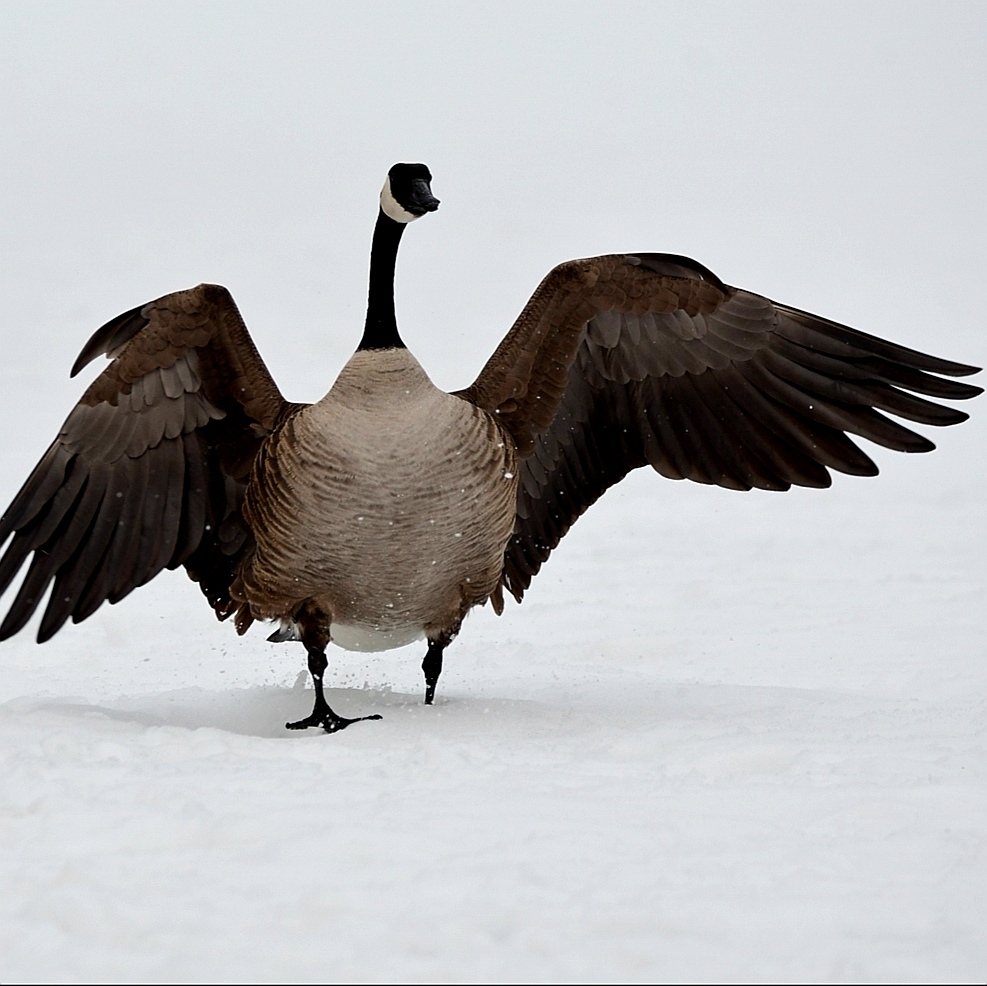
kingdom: Animalia
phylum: Chordata
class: Aves
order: Anseriformes
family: Anatidae
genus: Branta
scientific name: Branta canadensis
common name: Canada goose
